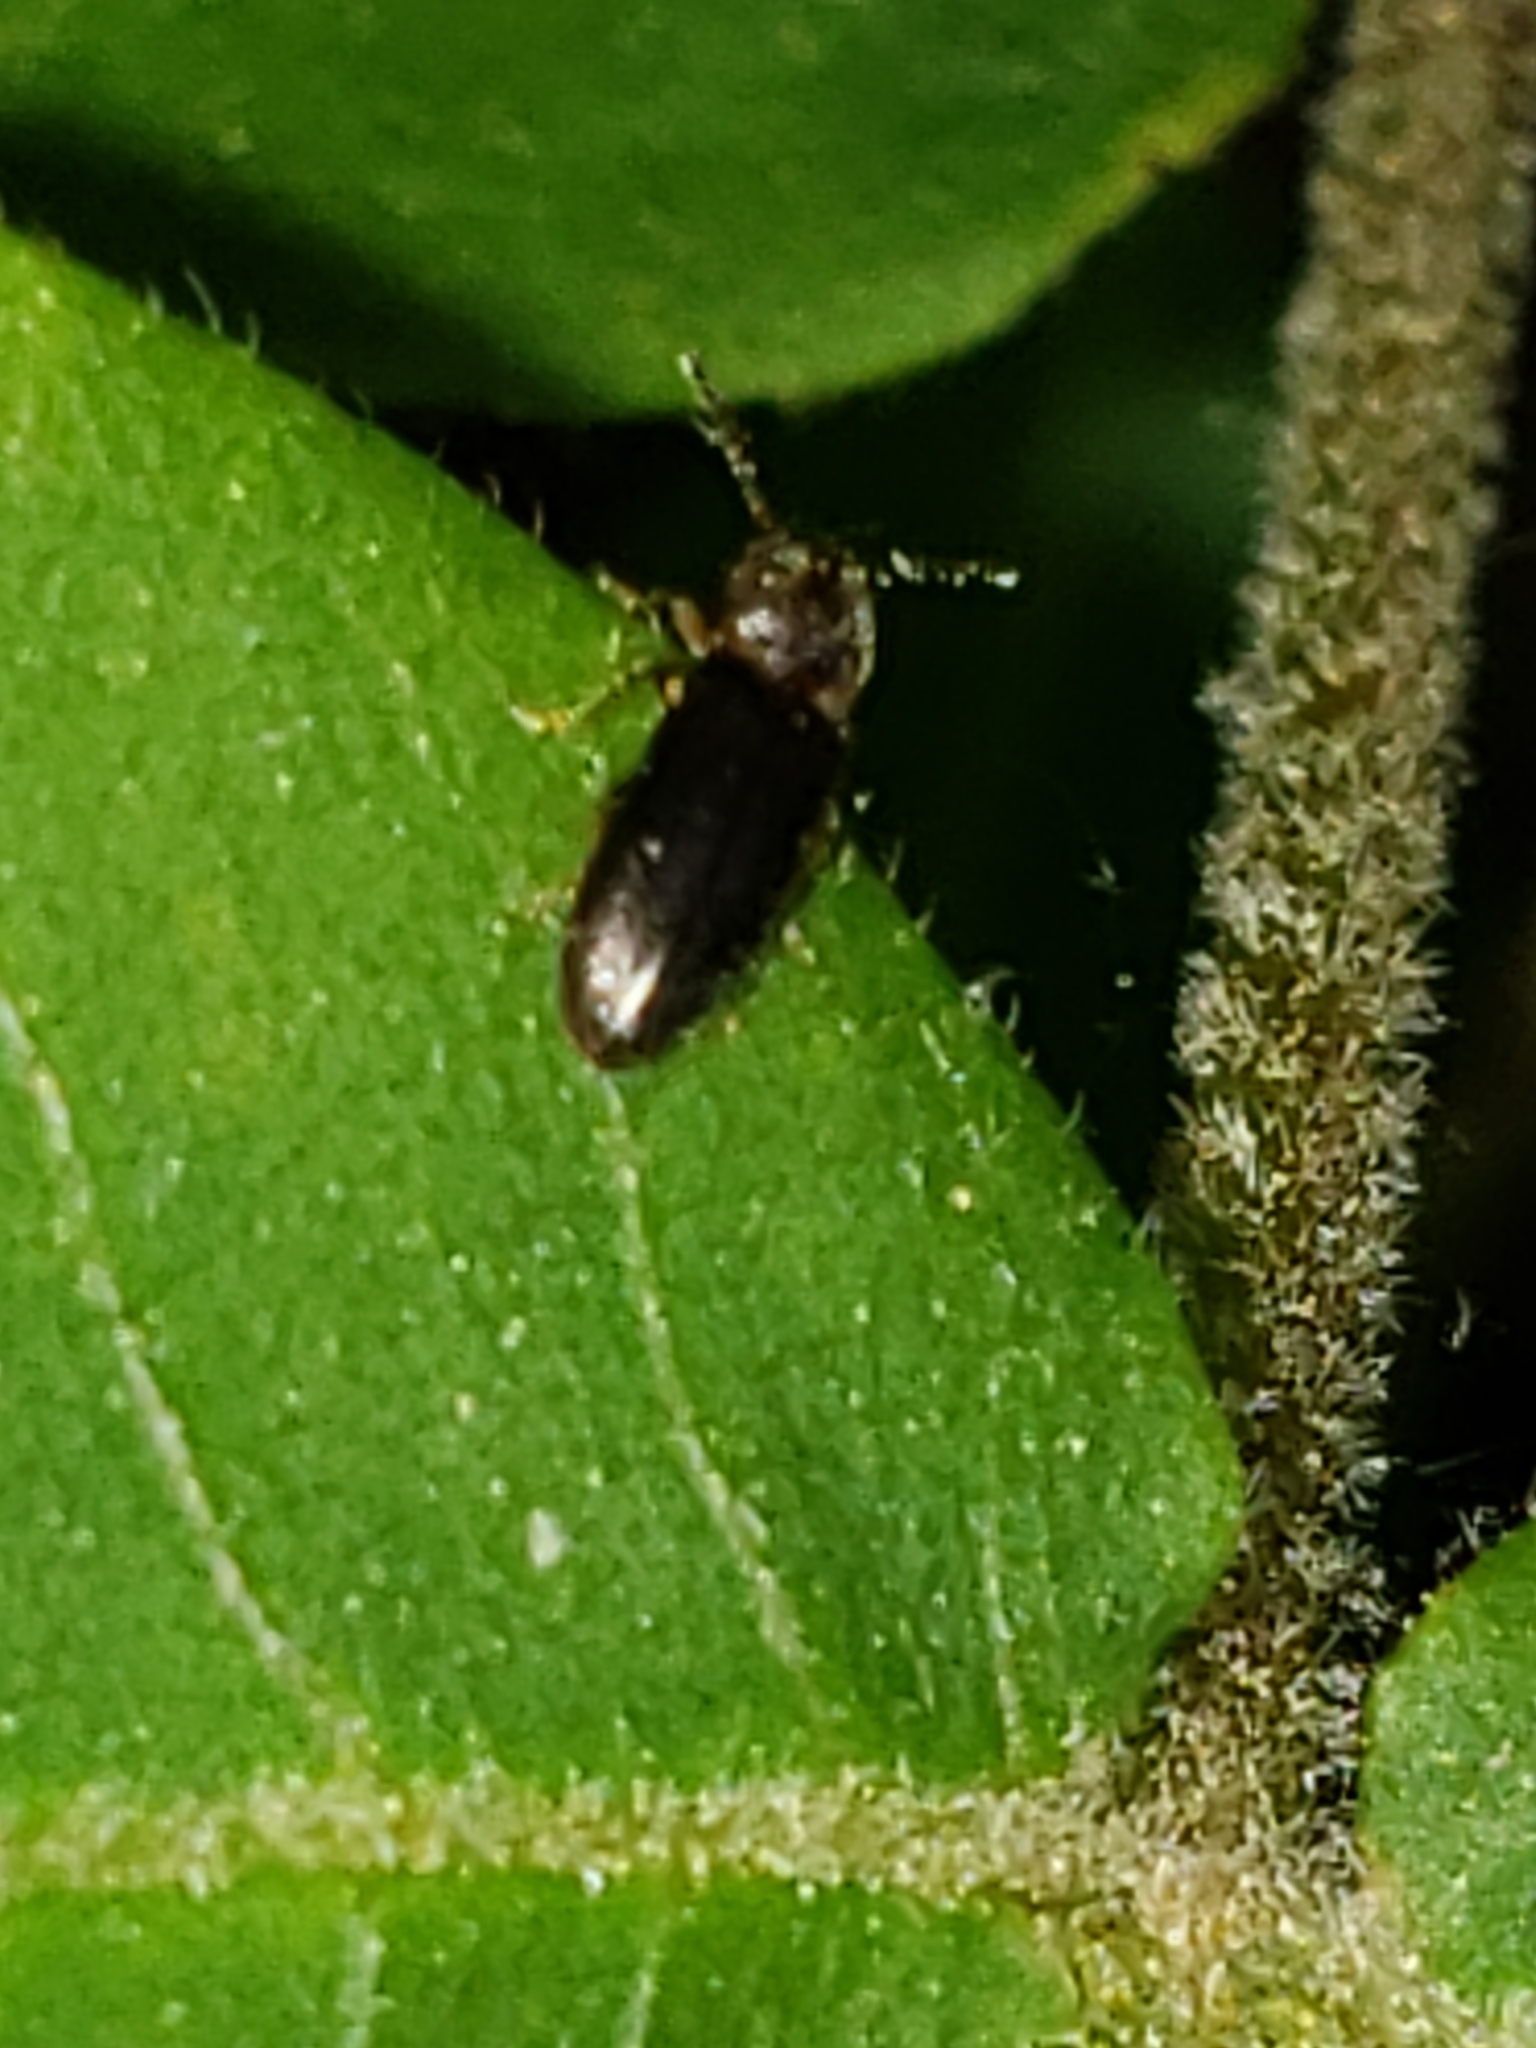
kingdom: Animalia
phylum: Arthropoda
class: Insecta
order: Coleoptera
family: Elateridae
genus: Tetralimonius
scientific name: Tetralimonius
